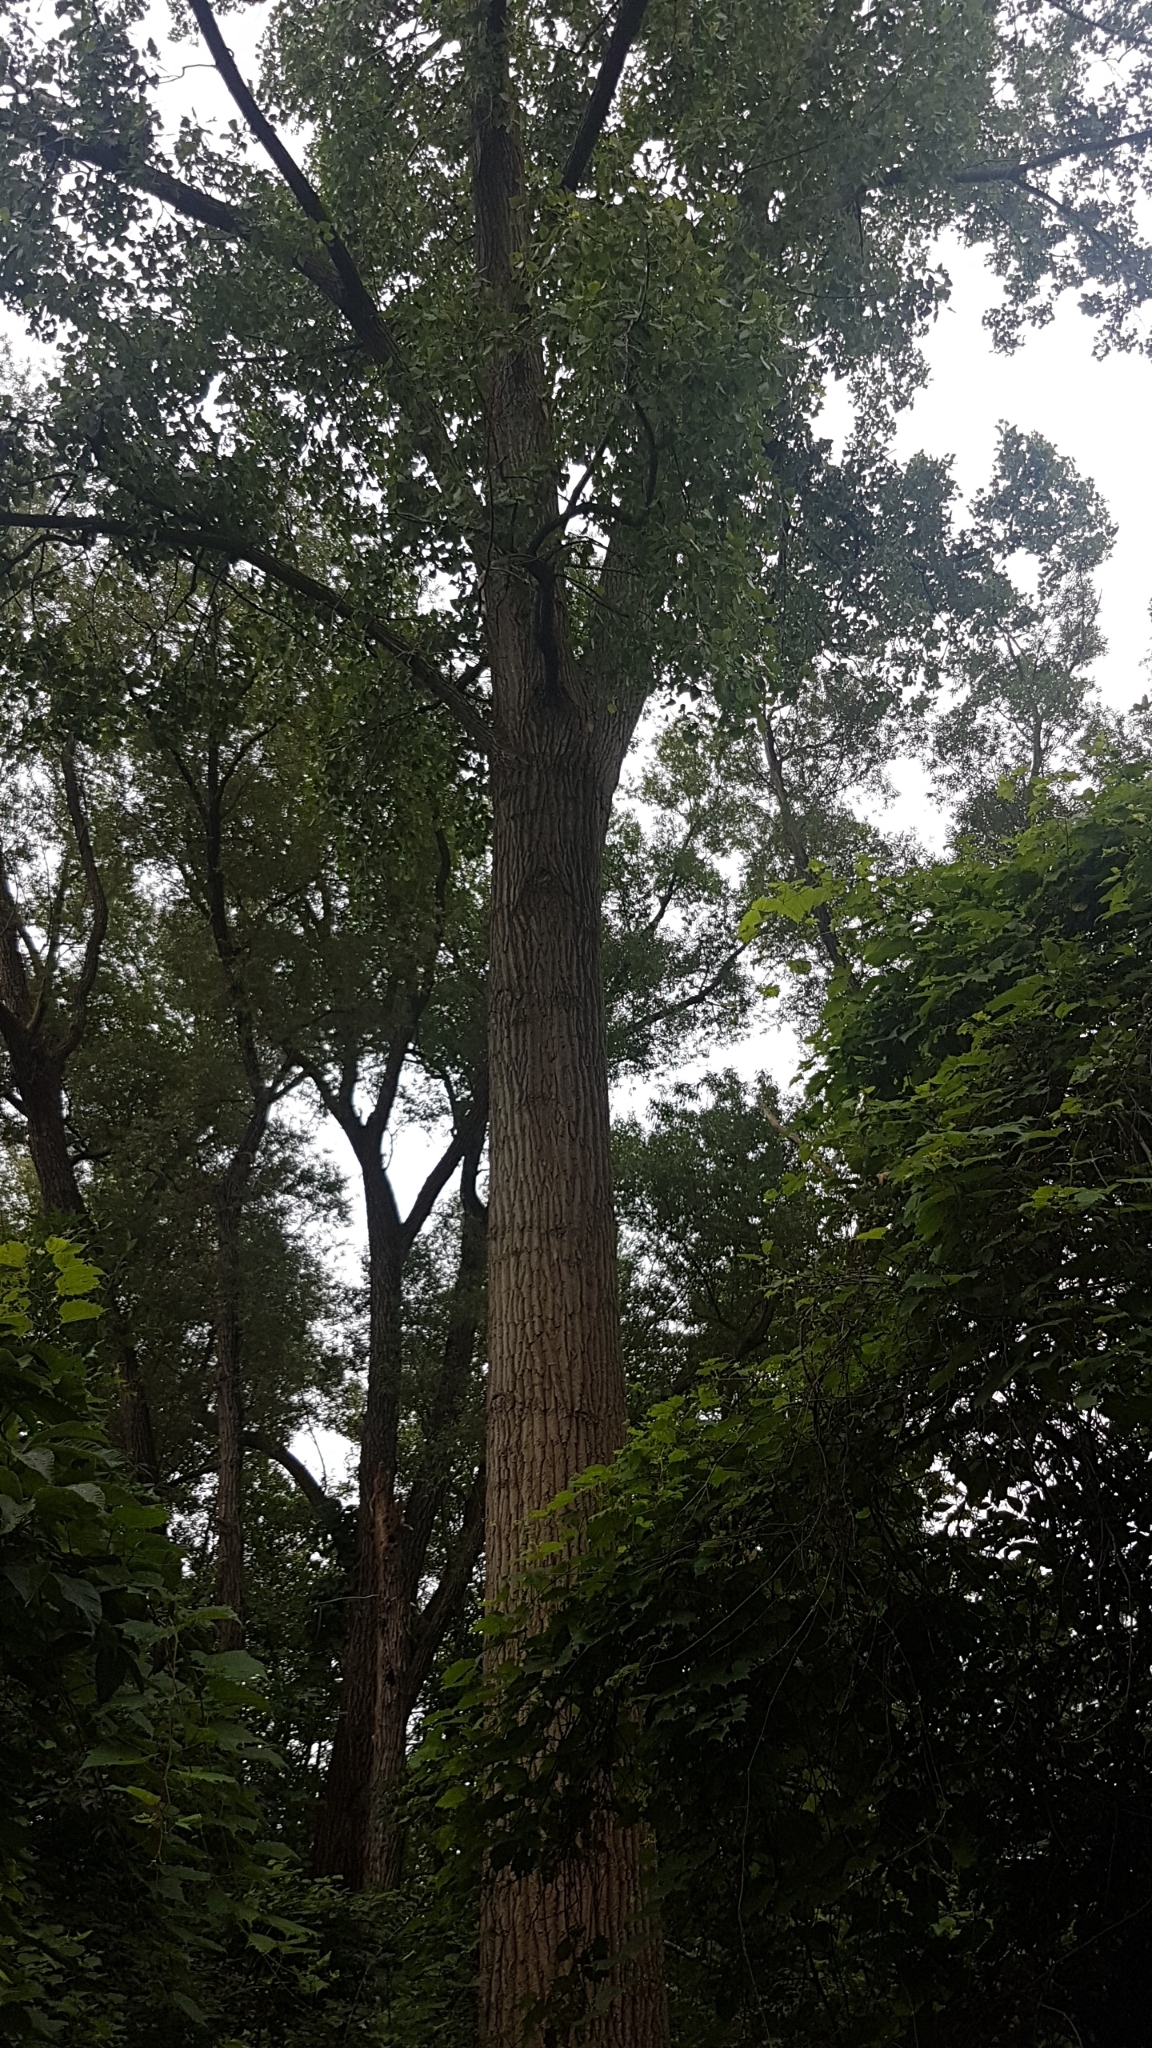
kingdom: Plantae
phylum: Tracheophyta
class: Magnoliopsida
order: Malpighiales
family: Salicaceae
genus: Populus
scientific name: Populus deltoides
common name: Eastern cottonwood
